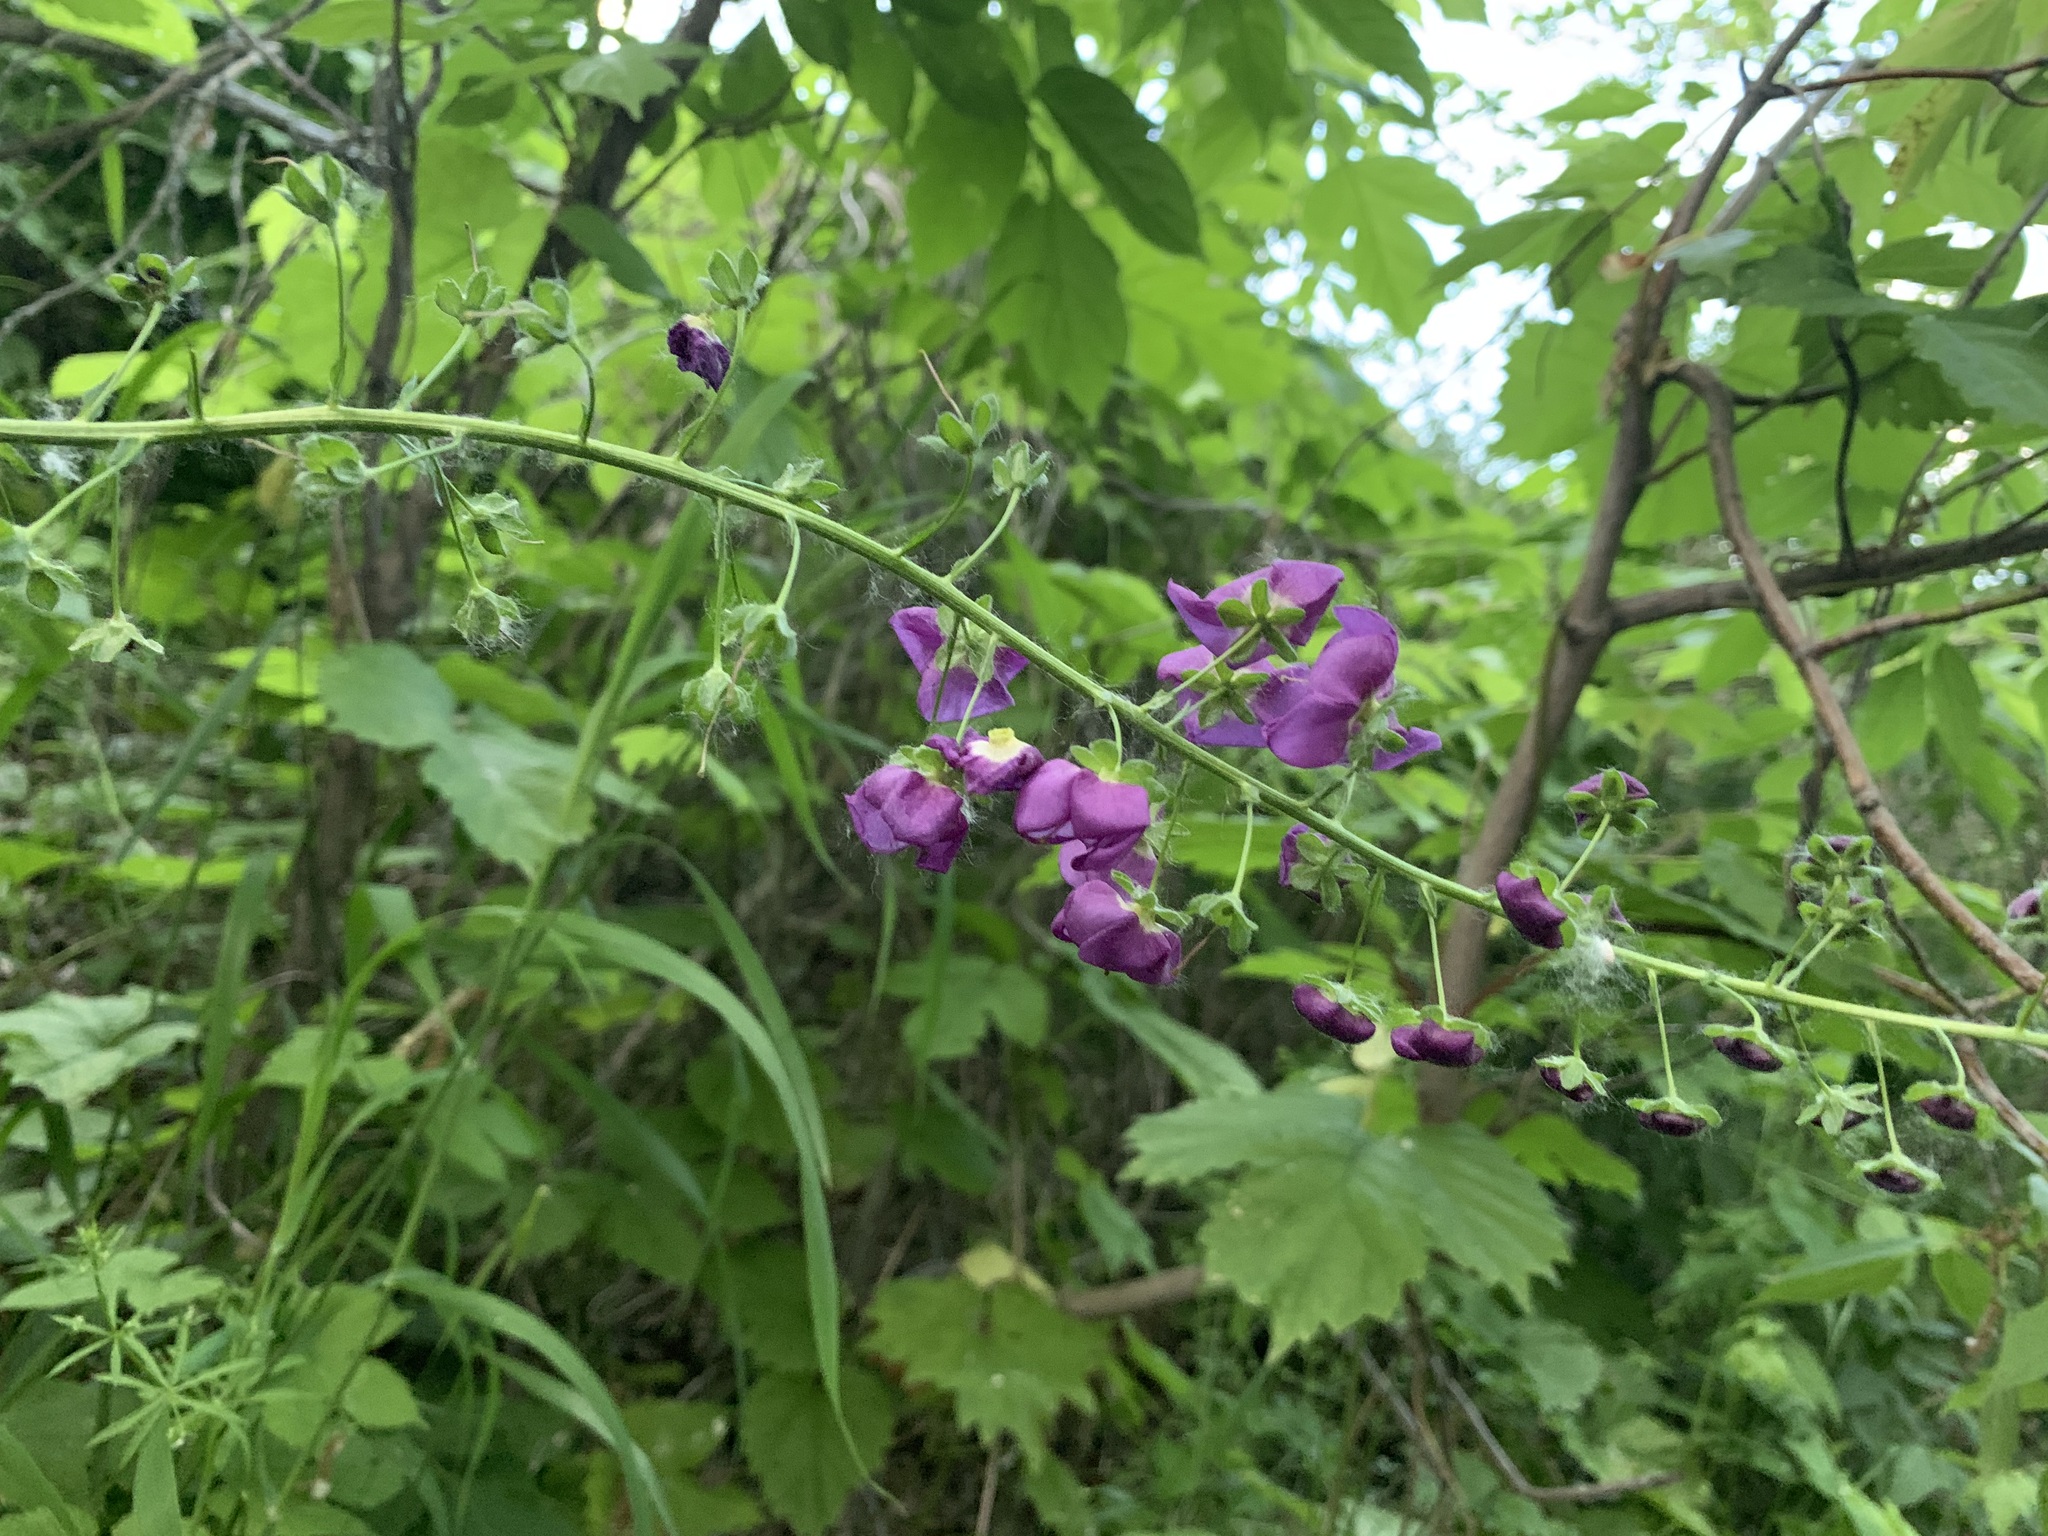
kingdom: Plantae
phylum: Tracheophyta
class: Magnoliopsida
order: Lamiales
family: Scrophulariaceae
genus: Verbascum
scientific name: Verbascum phoeniceum
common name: Purple mullein
